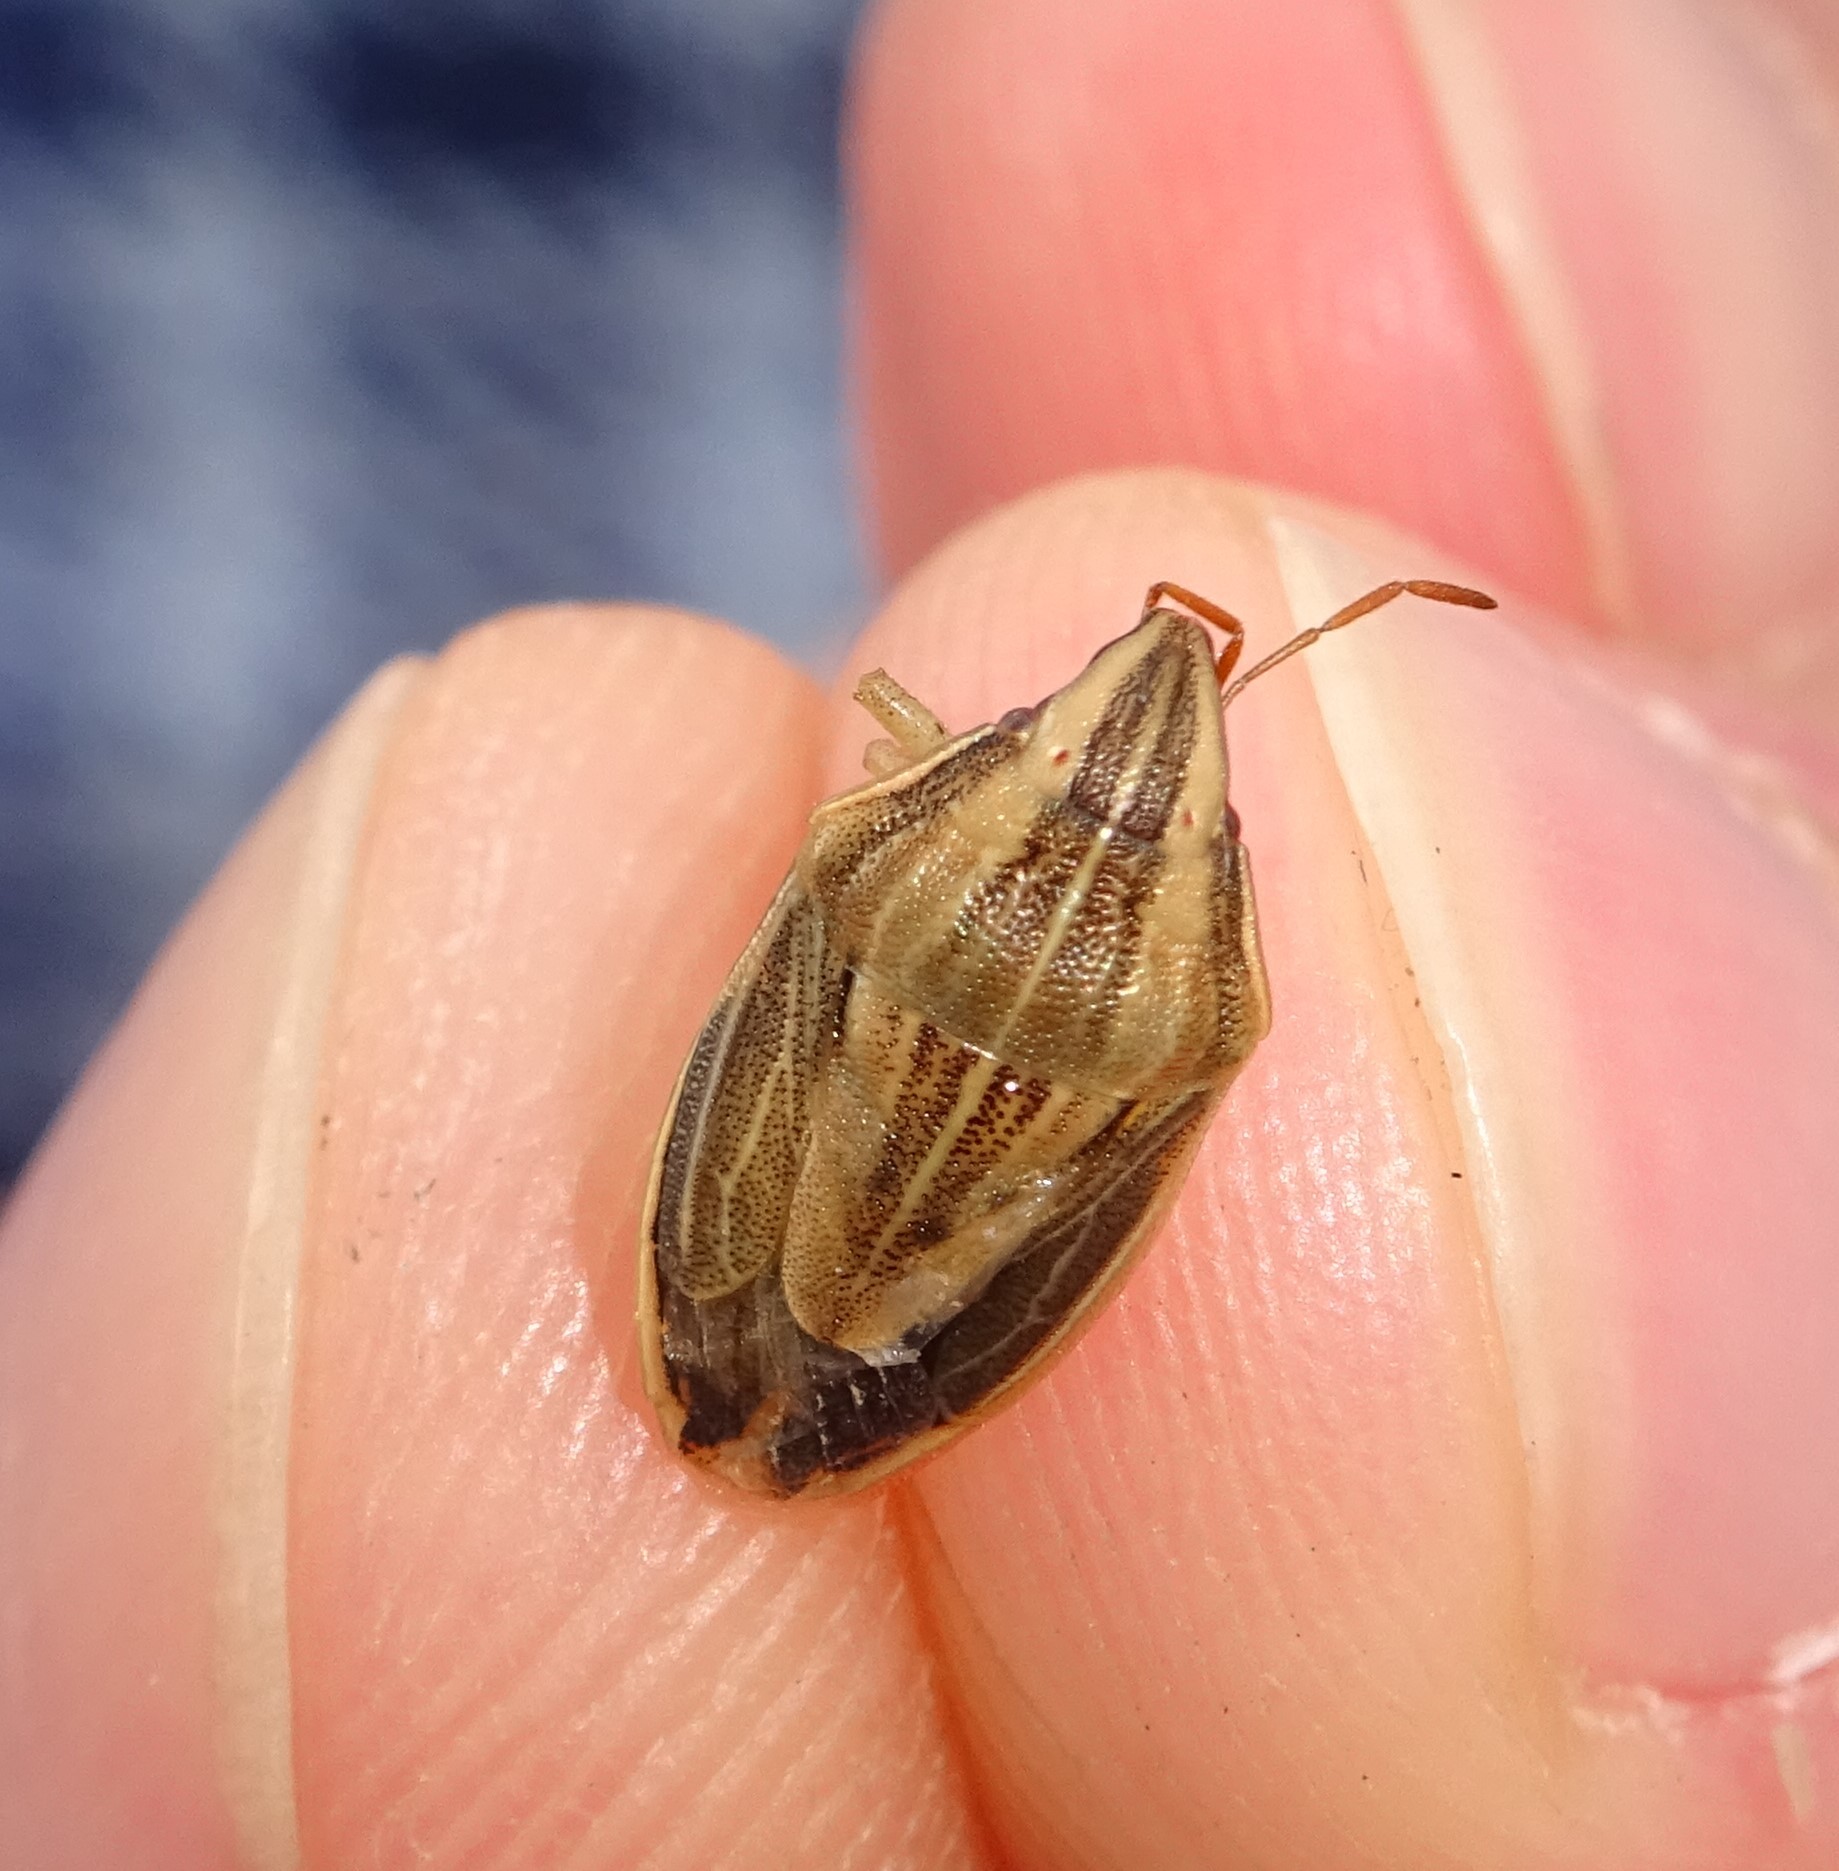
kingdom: Animalia
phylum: Arthropoda
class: Insecta
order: Hemiptera
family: Pentatomidae
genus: Aelia
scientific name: Aelia acuminata
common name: Bishop's mitre
